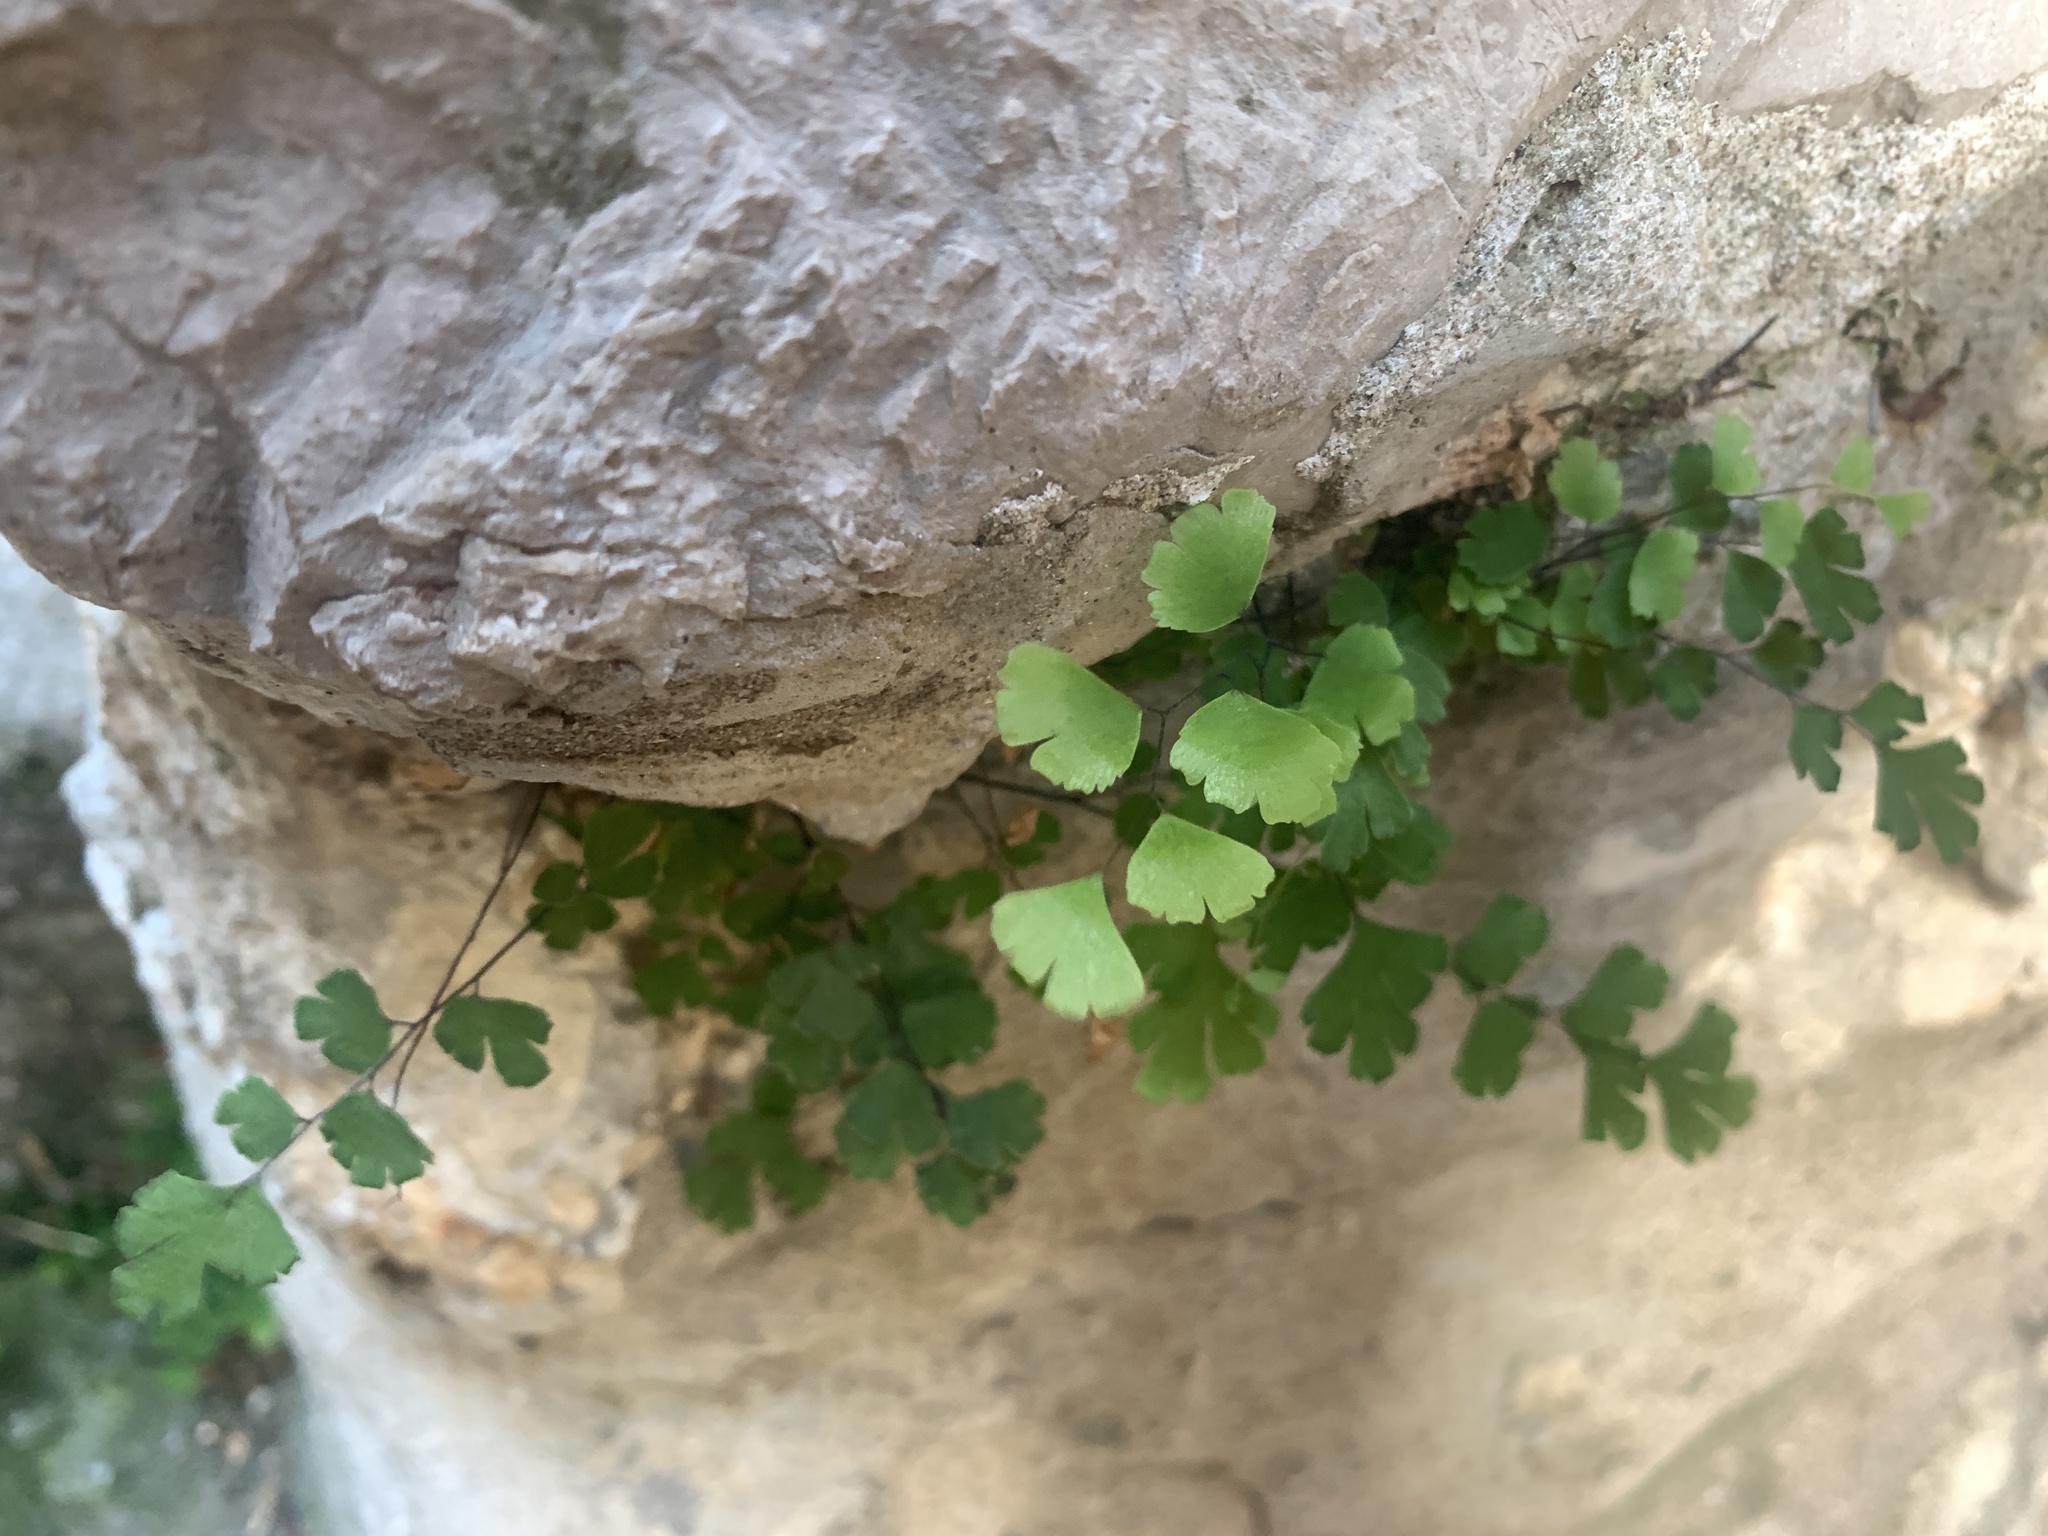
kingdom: Plantae
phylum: Tracheophyta
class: Polypodiopsida
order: Polypodiales
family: Pteridaceae
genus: Adiantum
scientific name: Adiantum capillus-veneris
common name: Maidenhair fern
